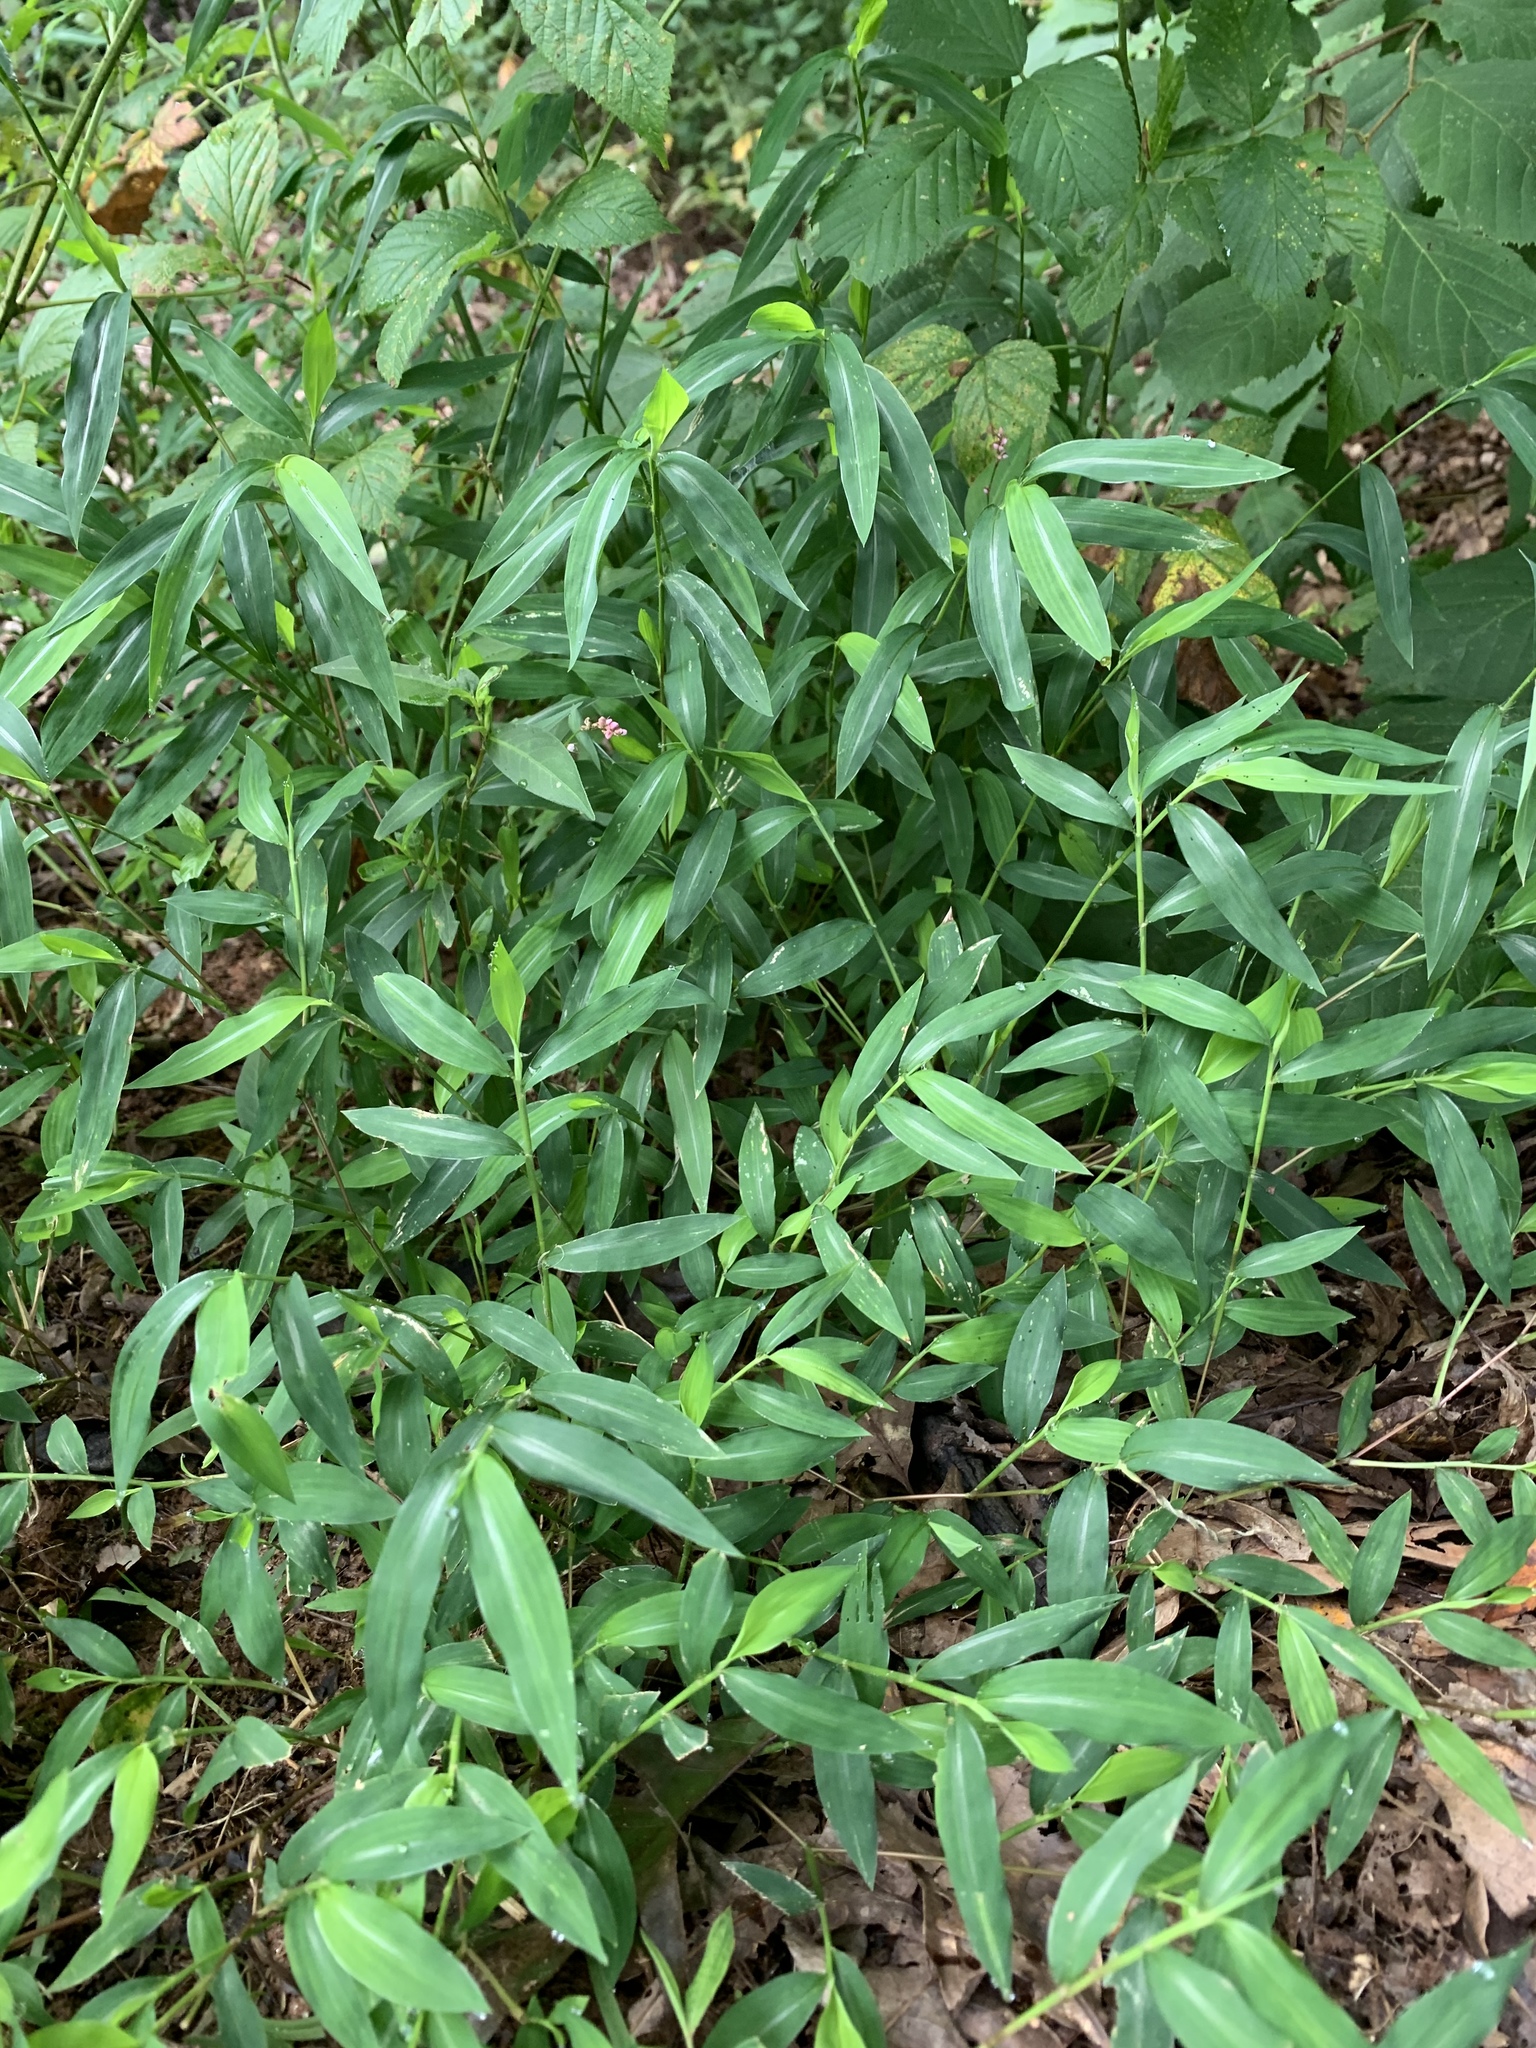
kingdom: Plantae
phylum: Tracheophyta
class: Liliopsida
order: Poales
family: Poaceae
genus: Microstegium
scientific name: Microstegium vimineum
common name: Japanese stiltgrass
